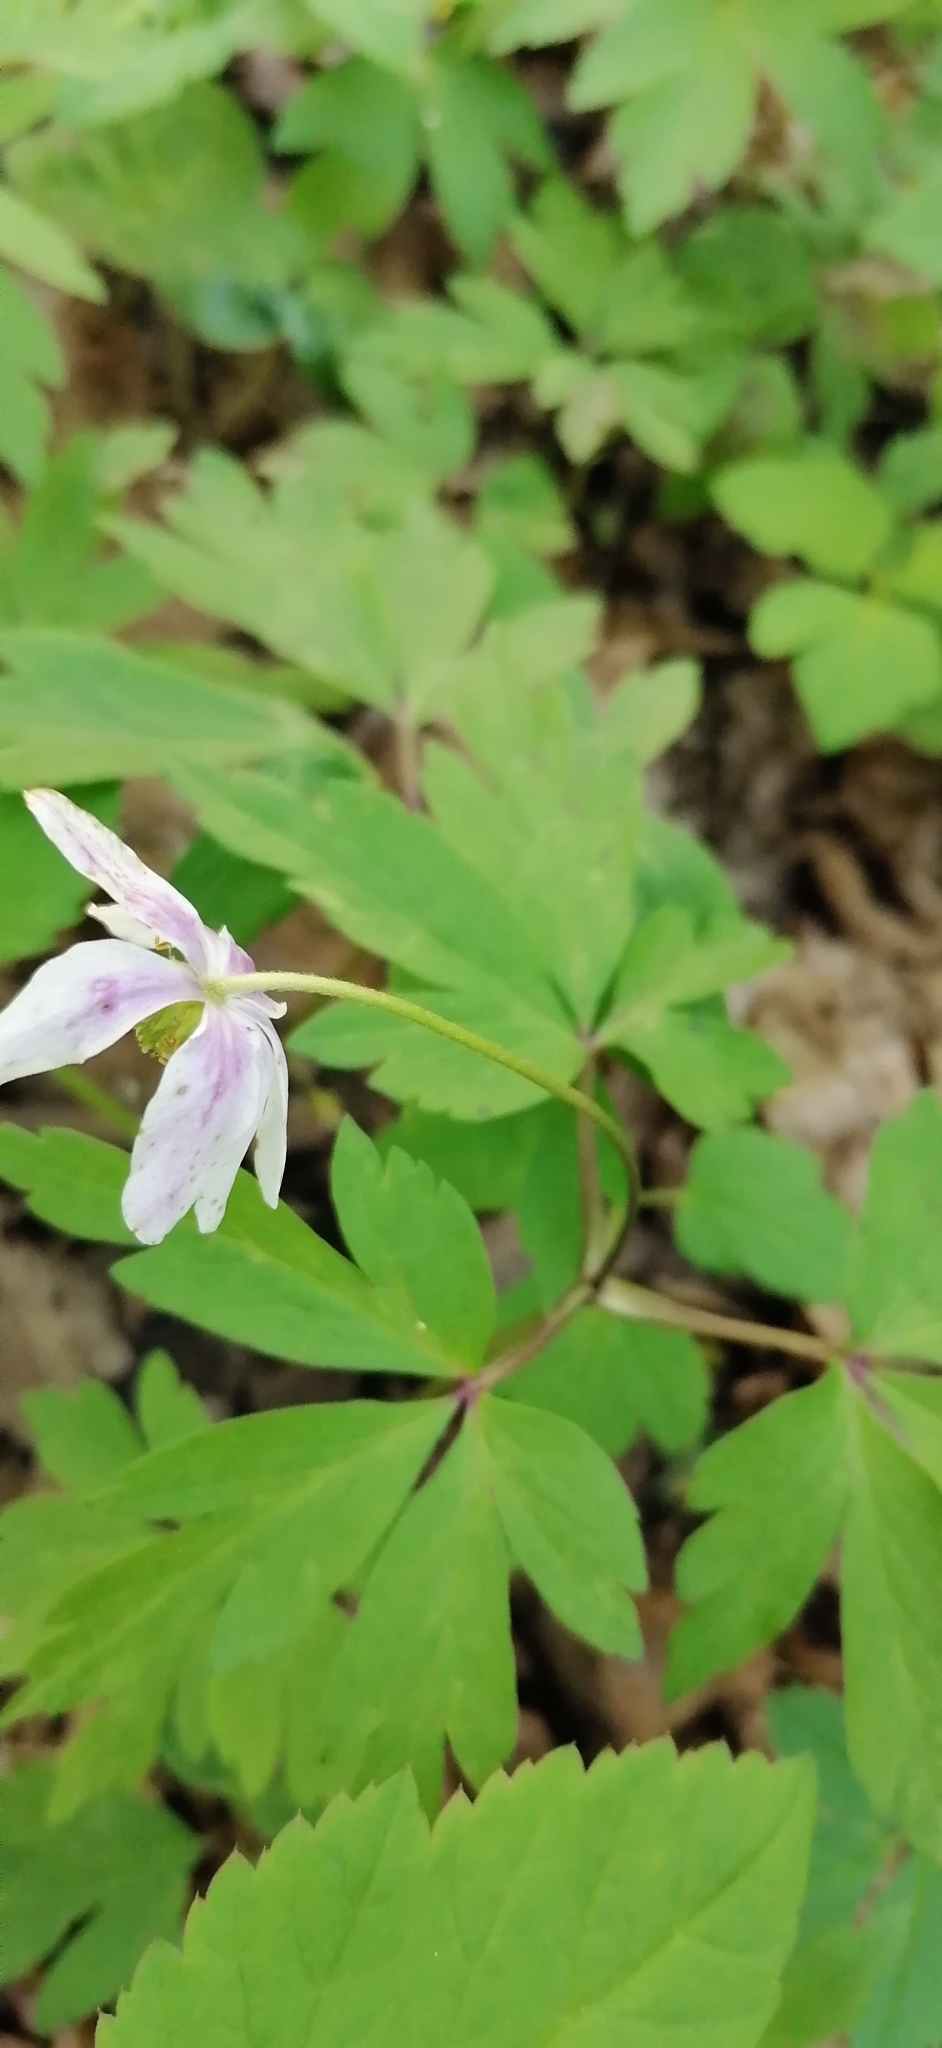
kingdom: Plantae
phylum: Tracheophyta
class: Magnoliopsida
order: Ranunculales
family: Ranunculaceae
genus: Anemone
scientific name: Anemone nemorosa
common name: Wood anemone
